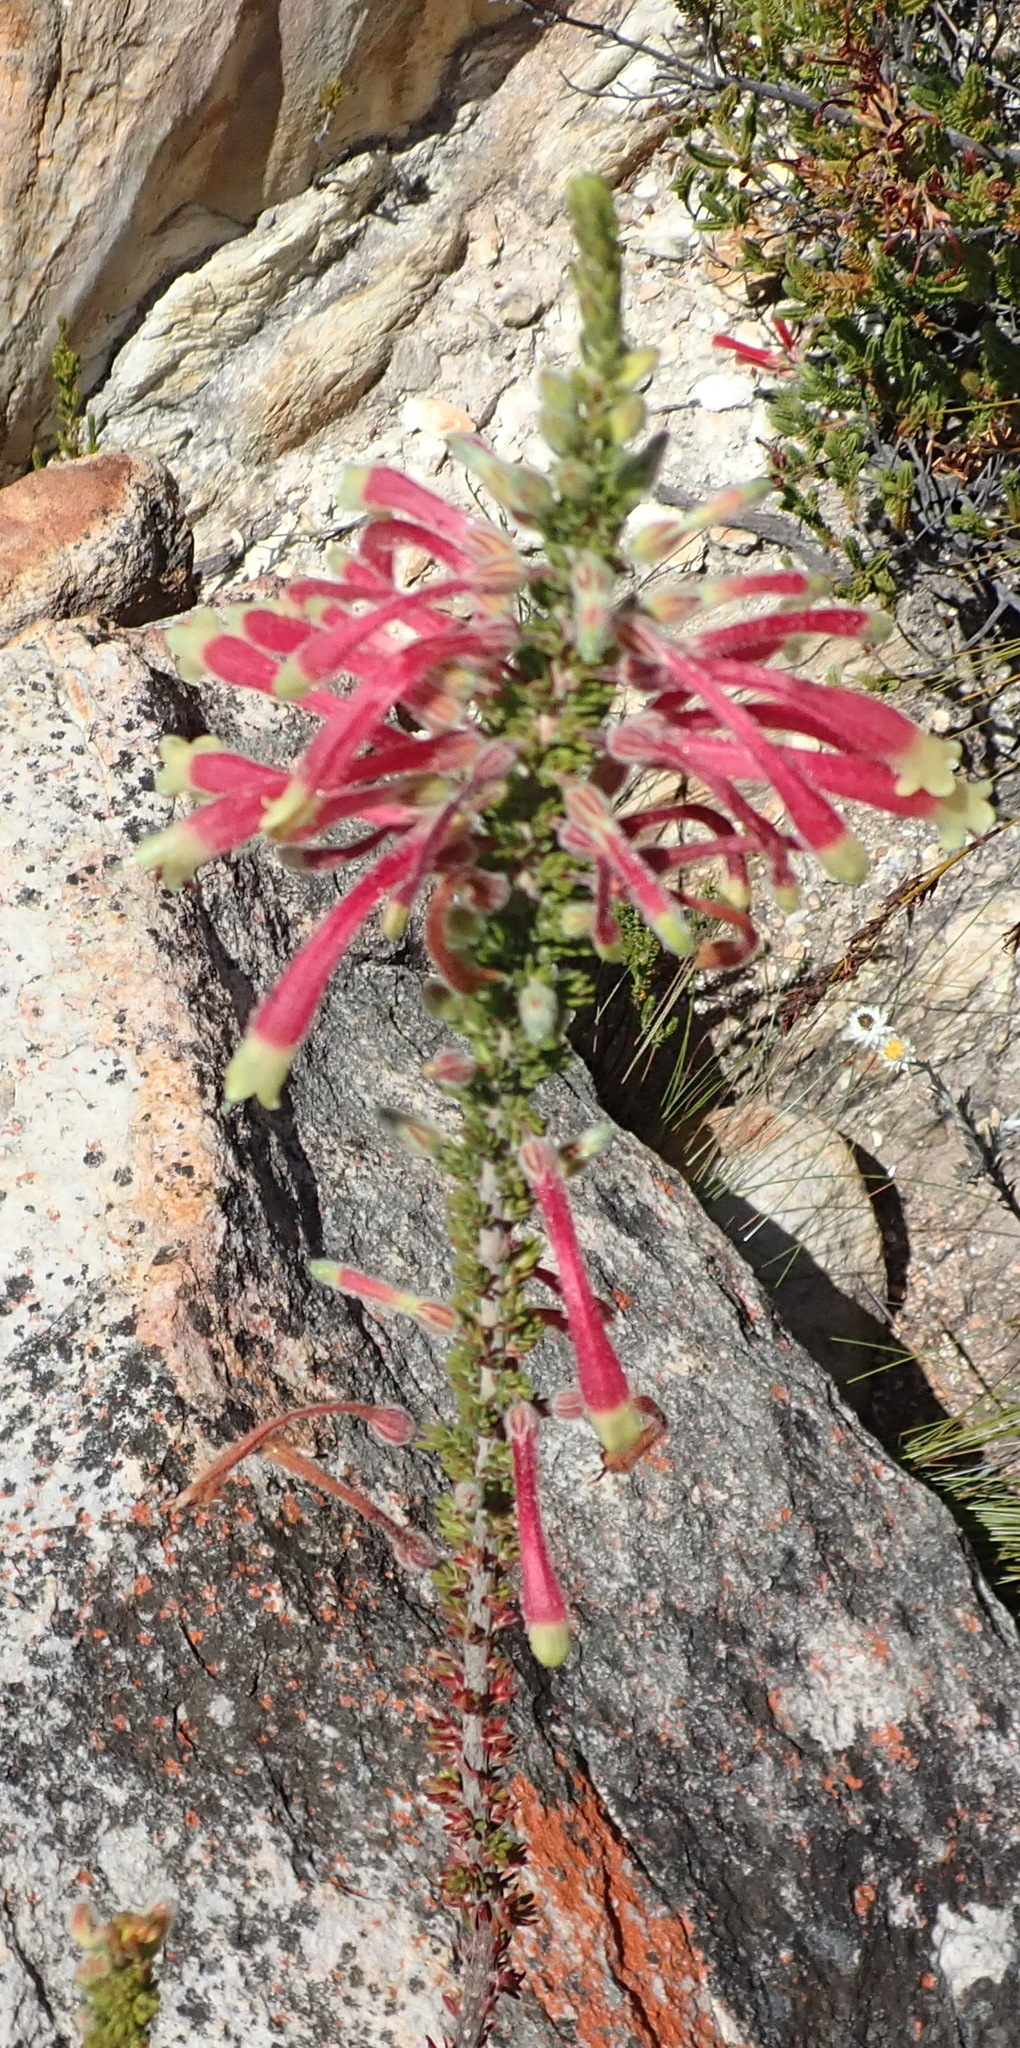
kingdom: Plantae
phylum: Tracheophyta
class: Magnoliopsida
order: Ericales
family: Ericaceae
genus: Erica
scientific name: Erica densifolia
